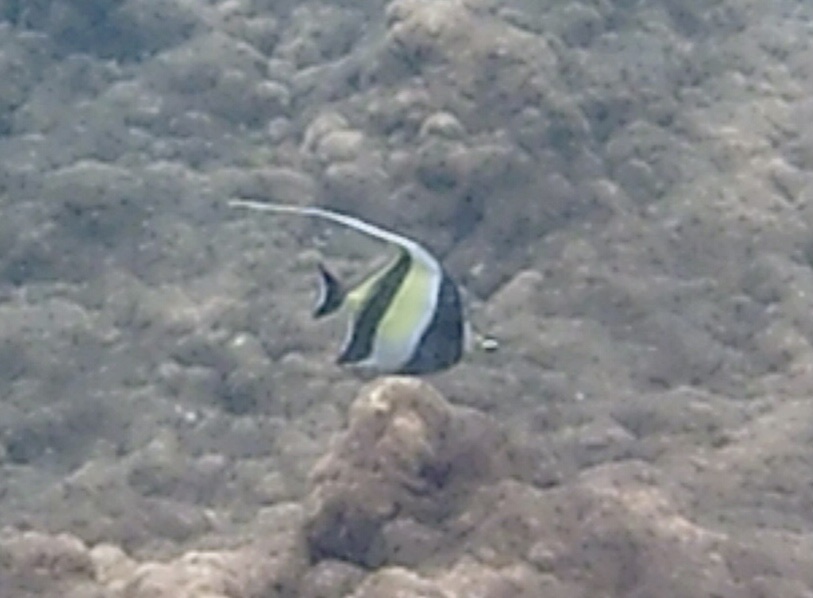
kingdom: Animalia
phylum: Chordata
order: Perciformes
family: Zanclidae
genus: Zanclus
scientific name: Zanclus cornutus
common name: Moorish idol
